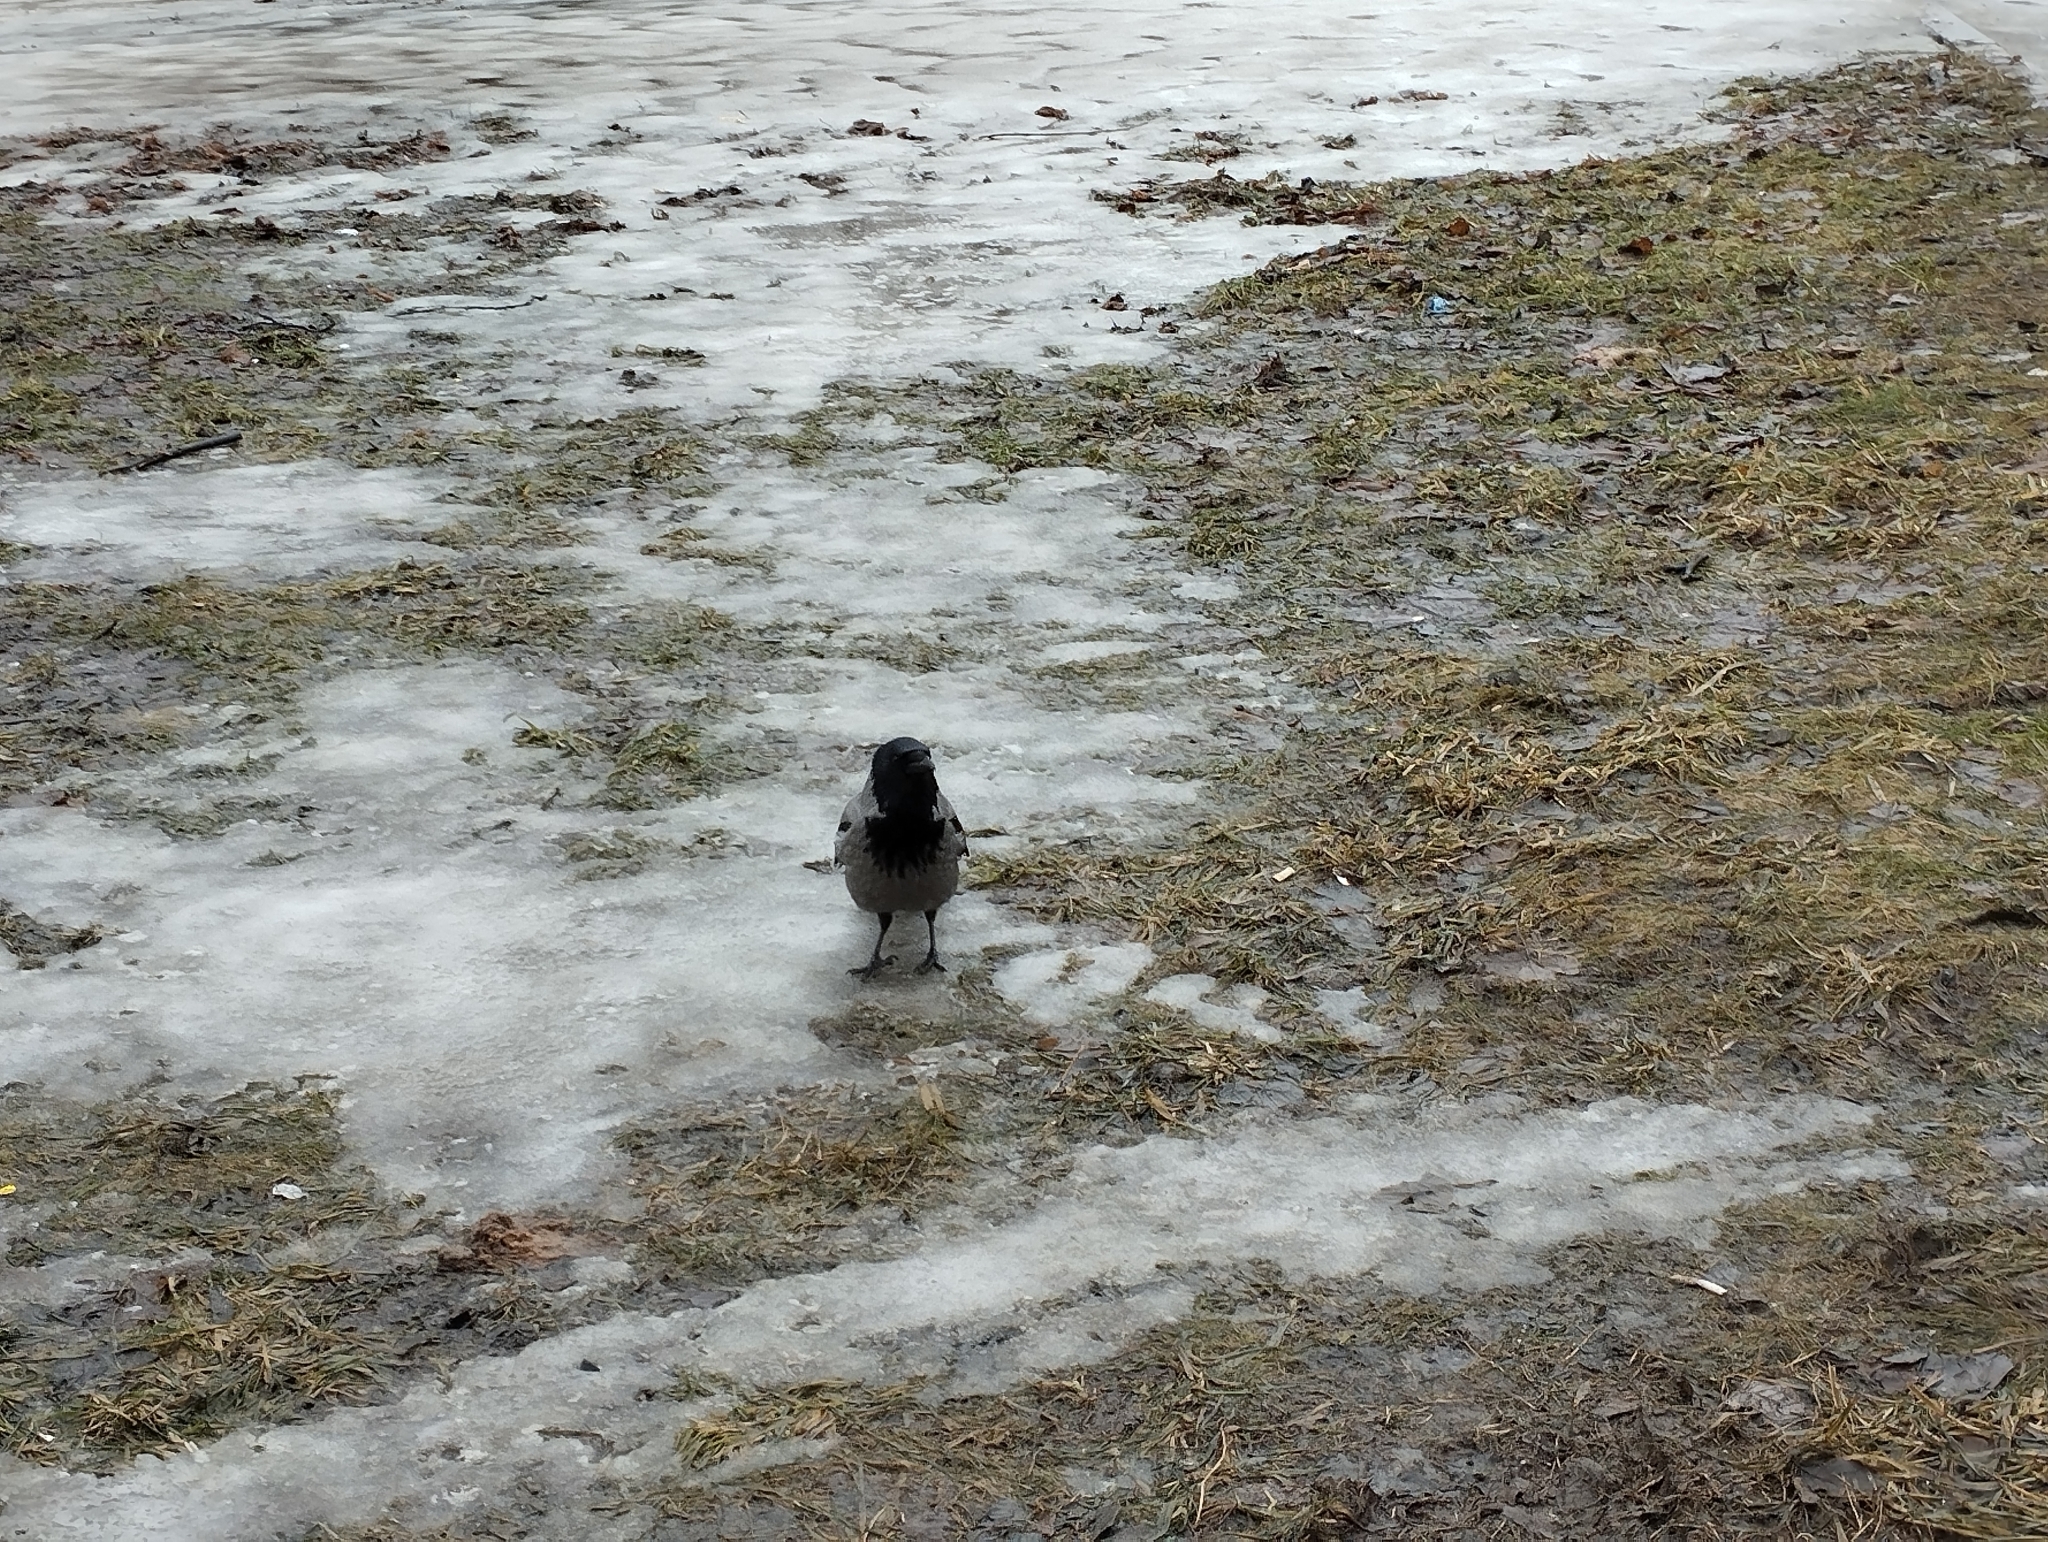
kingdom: Animalia
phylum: Chordata
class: Aves
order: Passeriformes
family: Corvidae
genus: Corvus
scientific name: Corvus cornix
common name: Hooded crow
